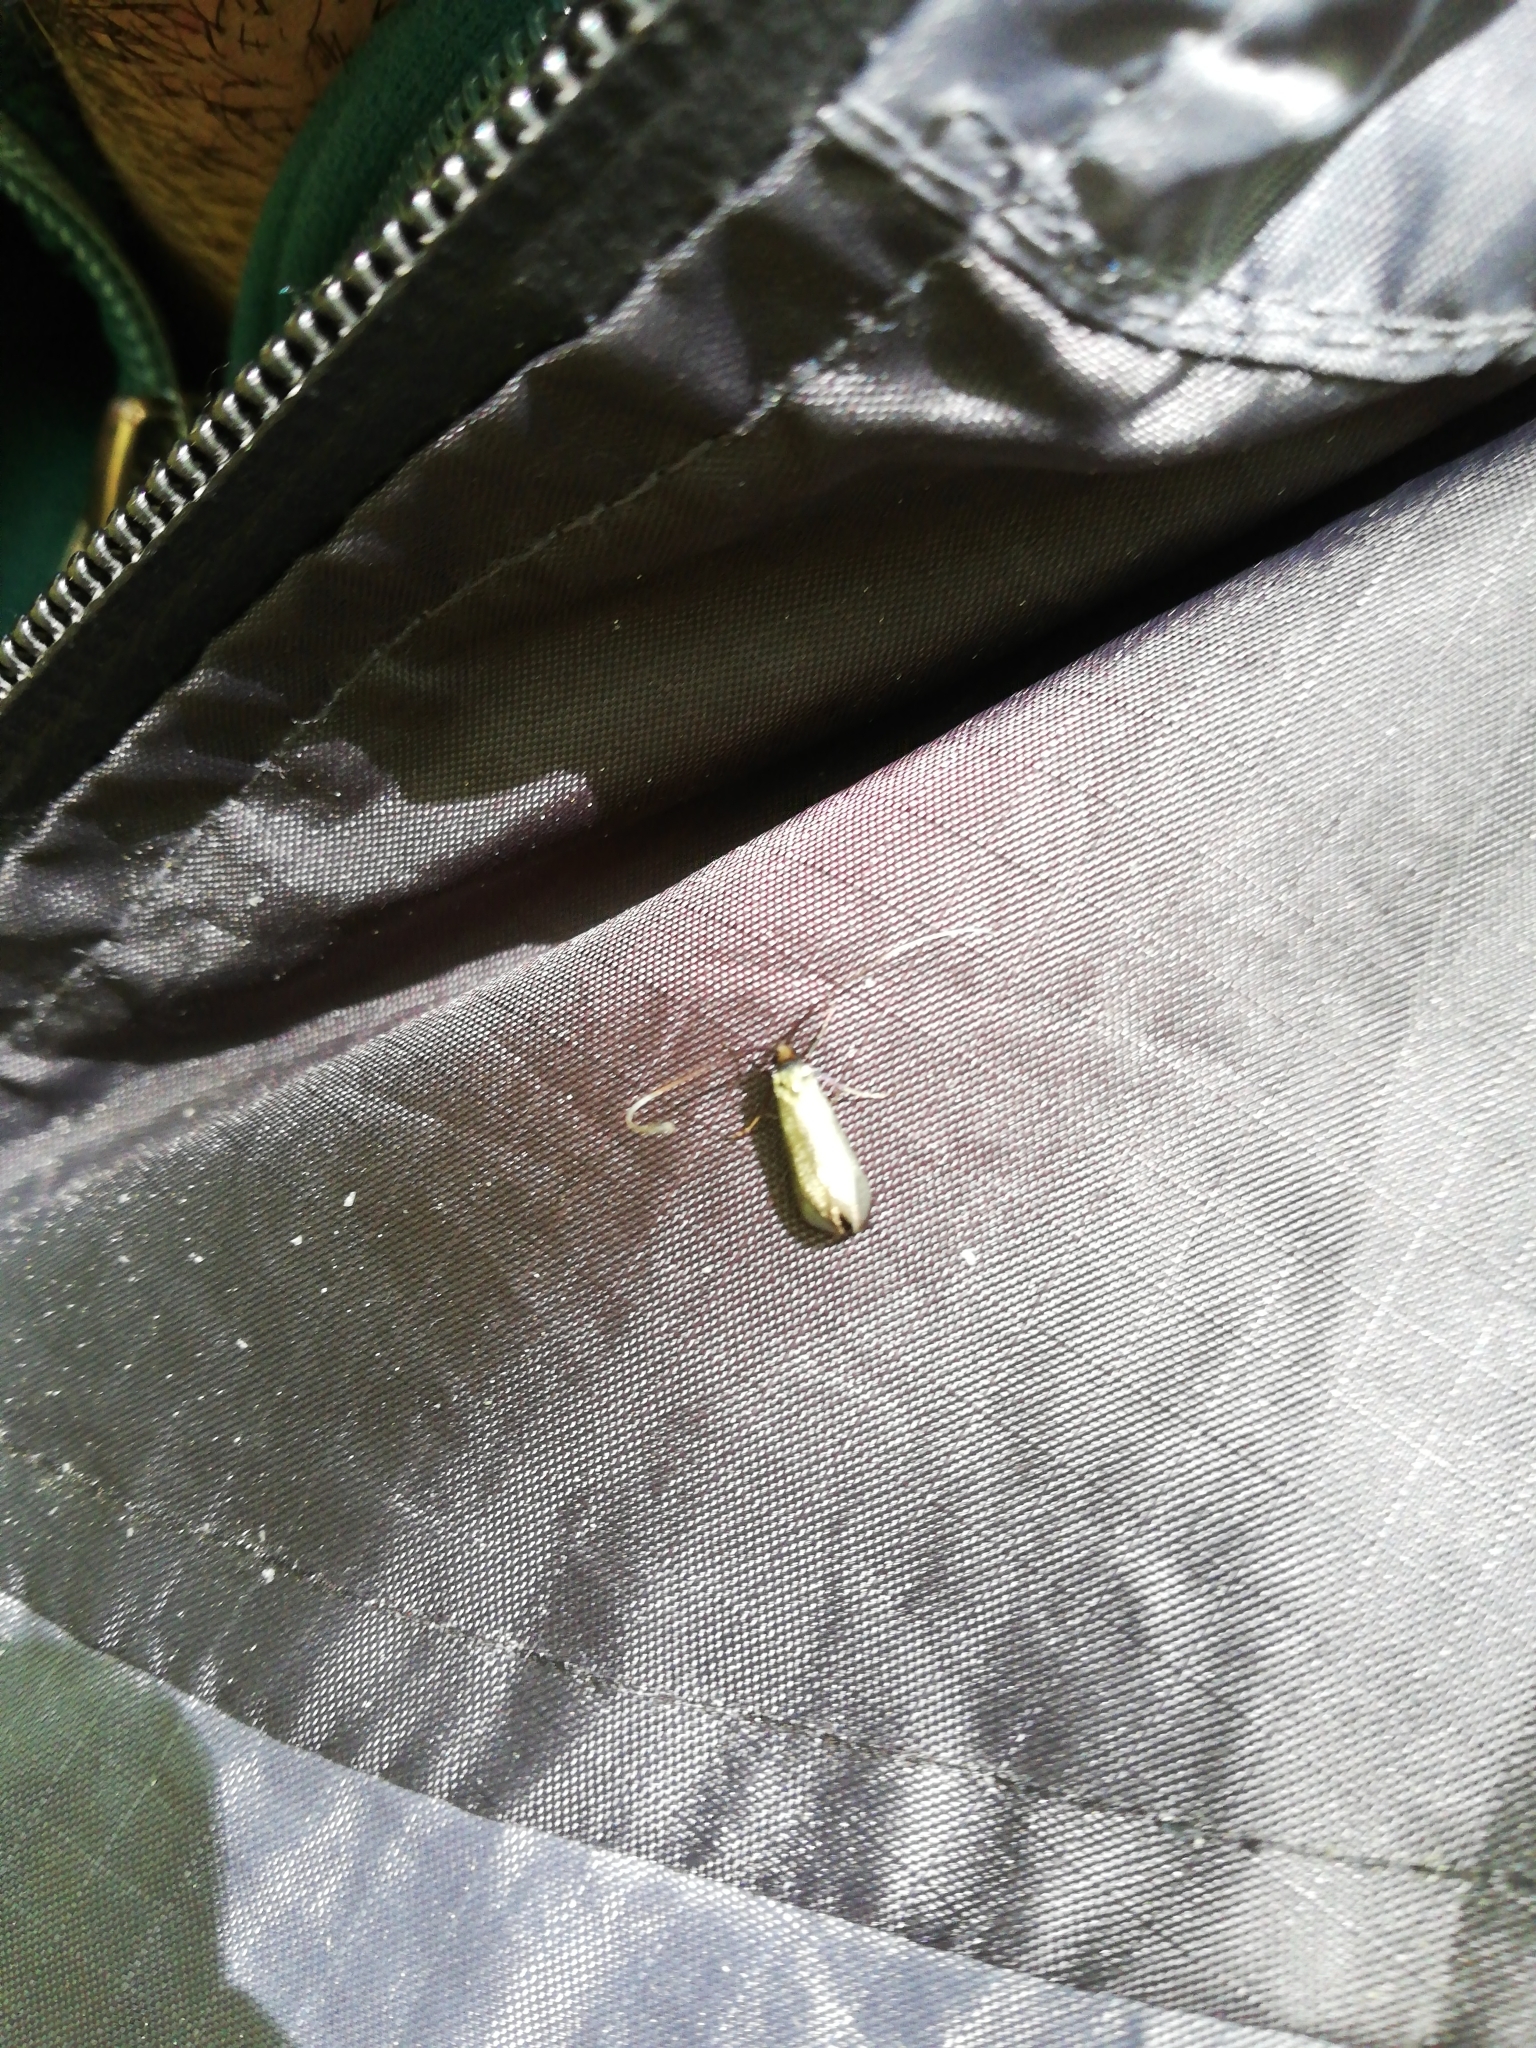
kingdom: Animalia
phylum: Arthropoda
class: Insecta
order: Lepidoptera
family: Adelidae
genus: Adela
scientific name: Adela viridella
